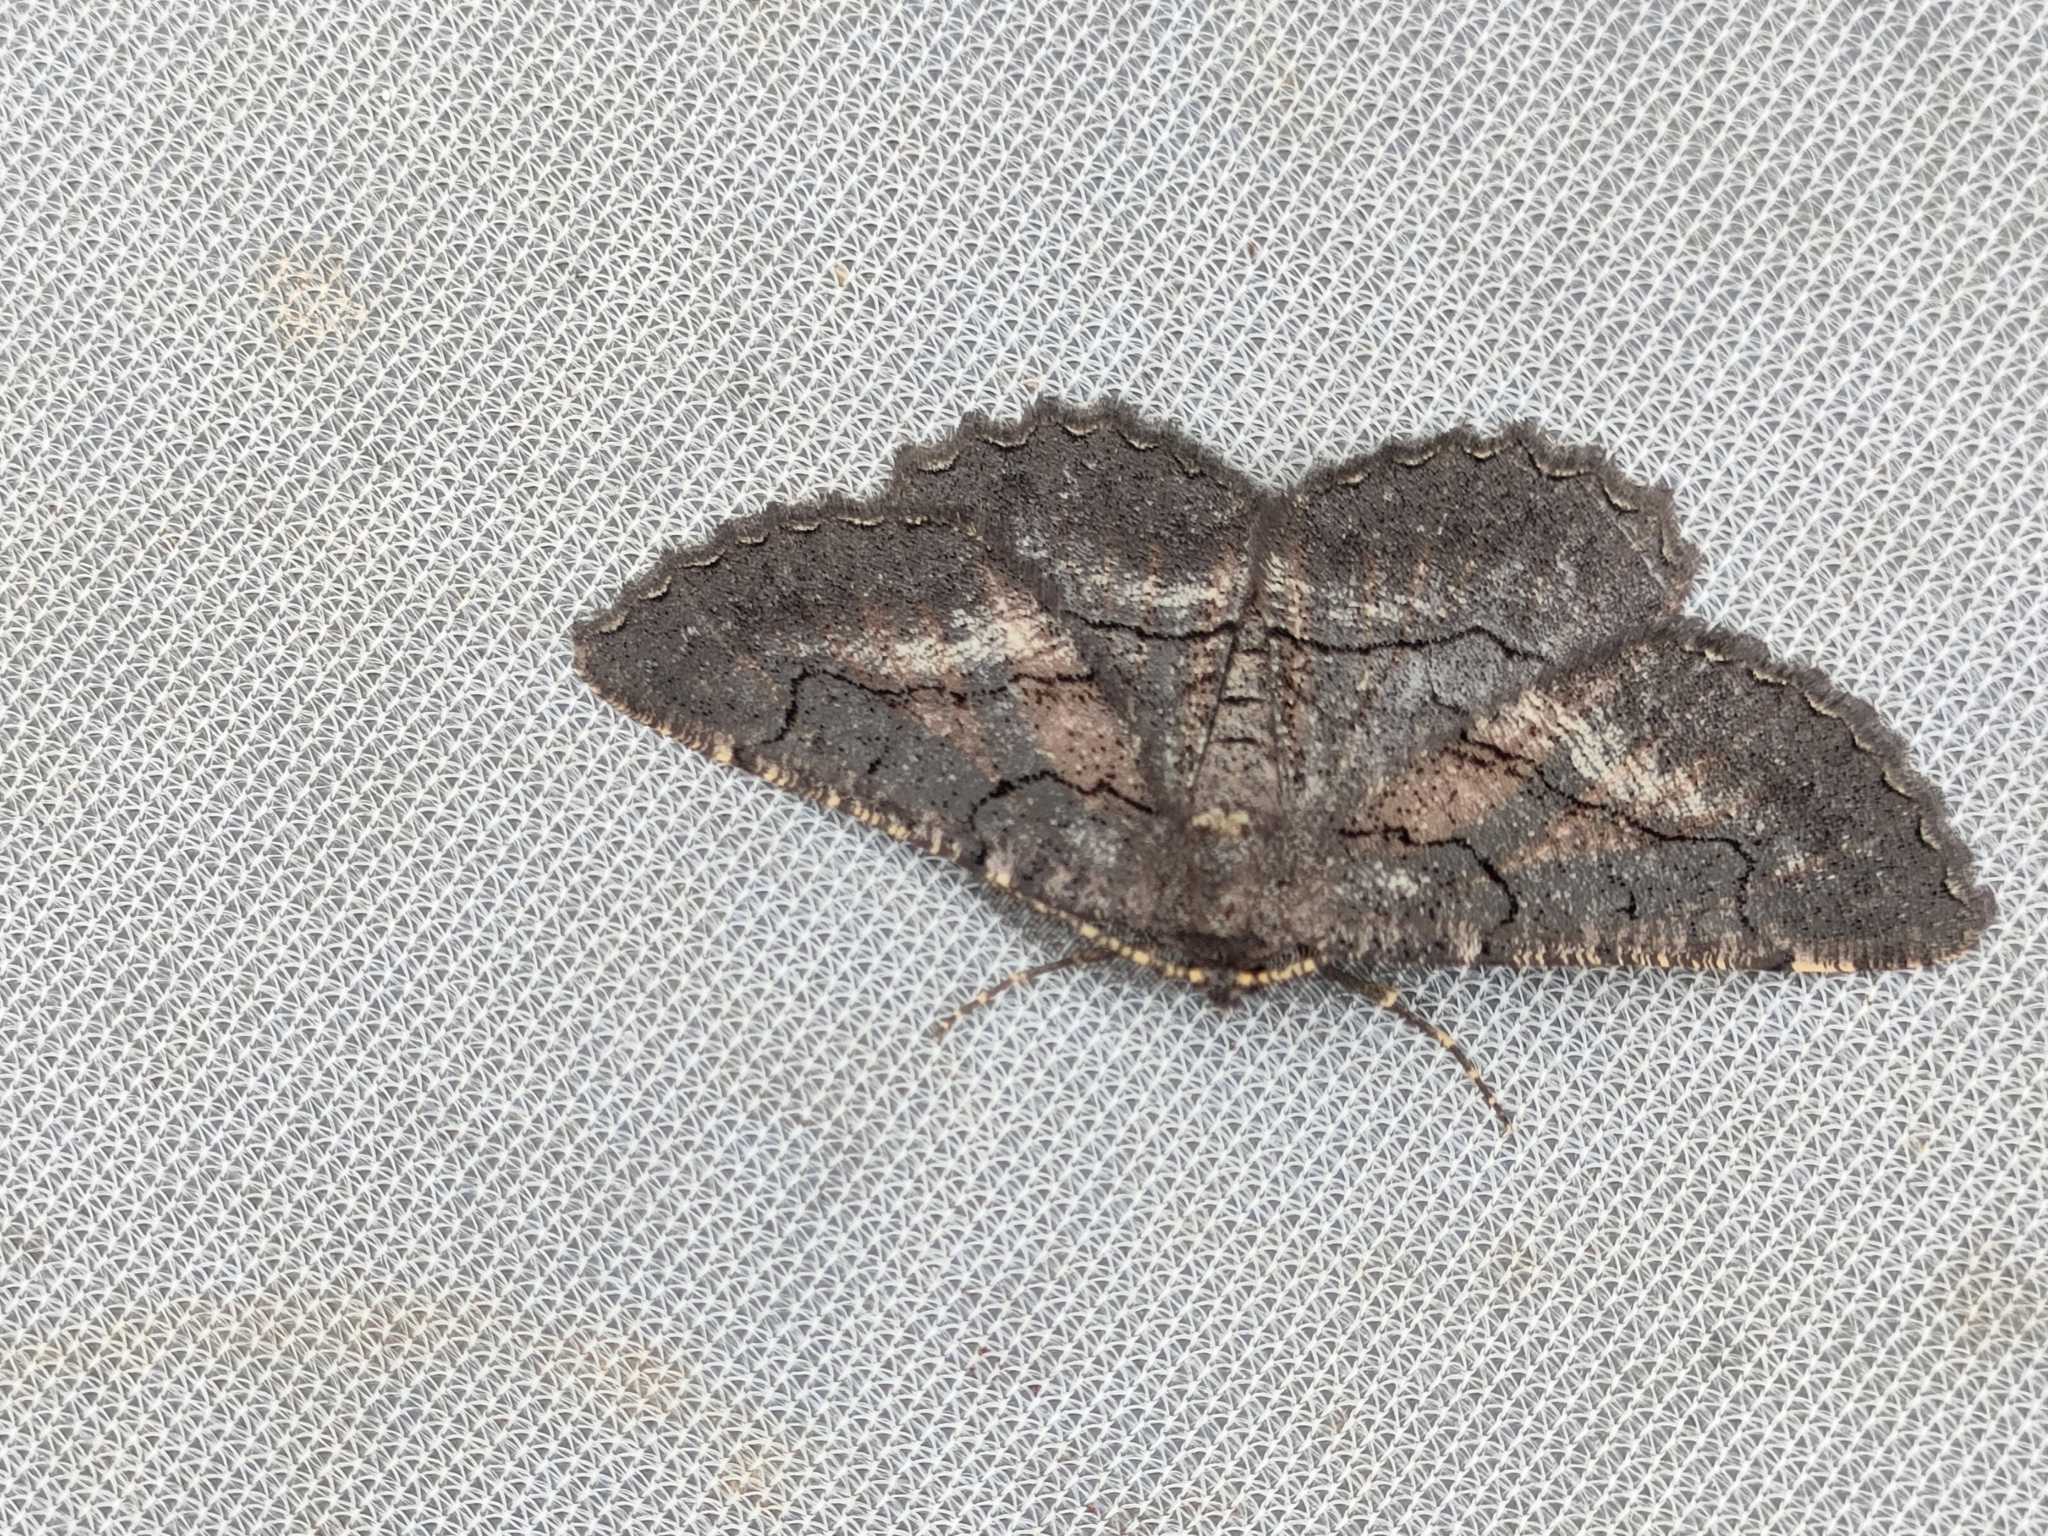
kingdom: Animalia
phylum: Arthropoda
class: Insecta
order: Lepidoptera
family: Geometridae
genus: Nychiodes
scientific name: Nychiodes notarioi
